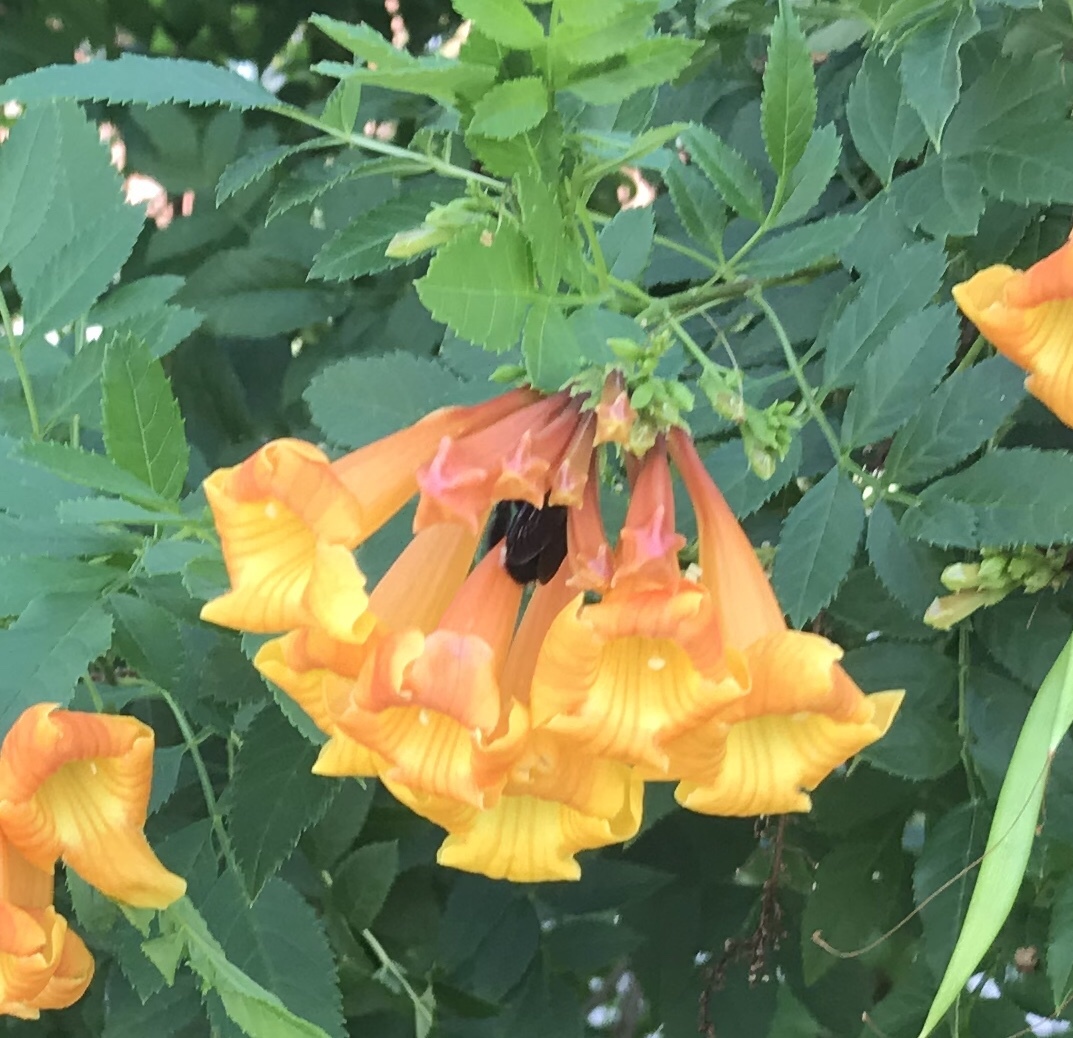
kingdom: Animalia
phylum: Arthropoda
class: Insecta
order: Hymenoptera
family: Apidae
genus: Xylocopa
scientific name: Xylocopa micans
